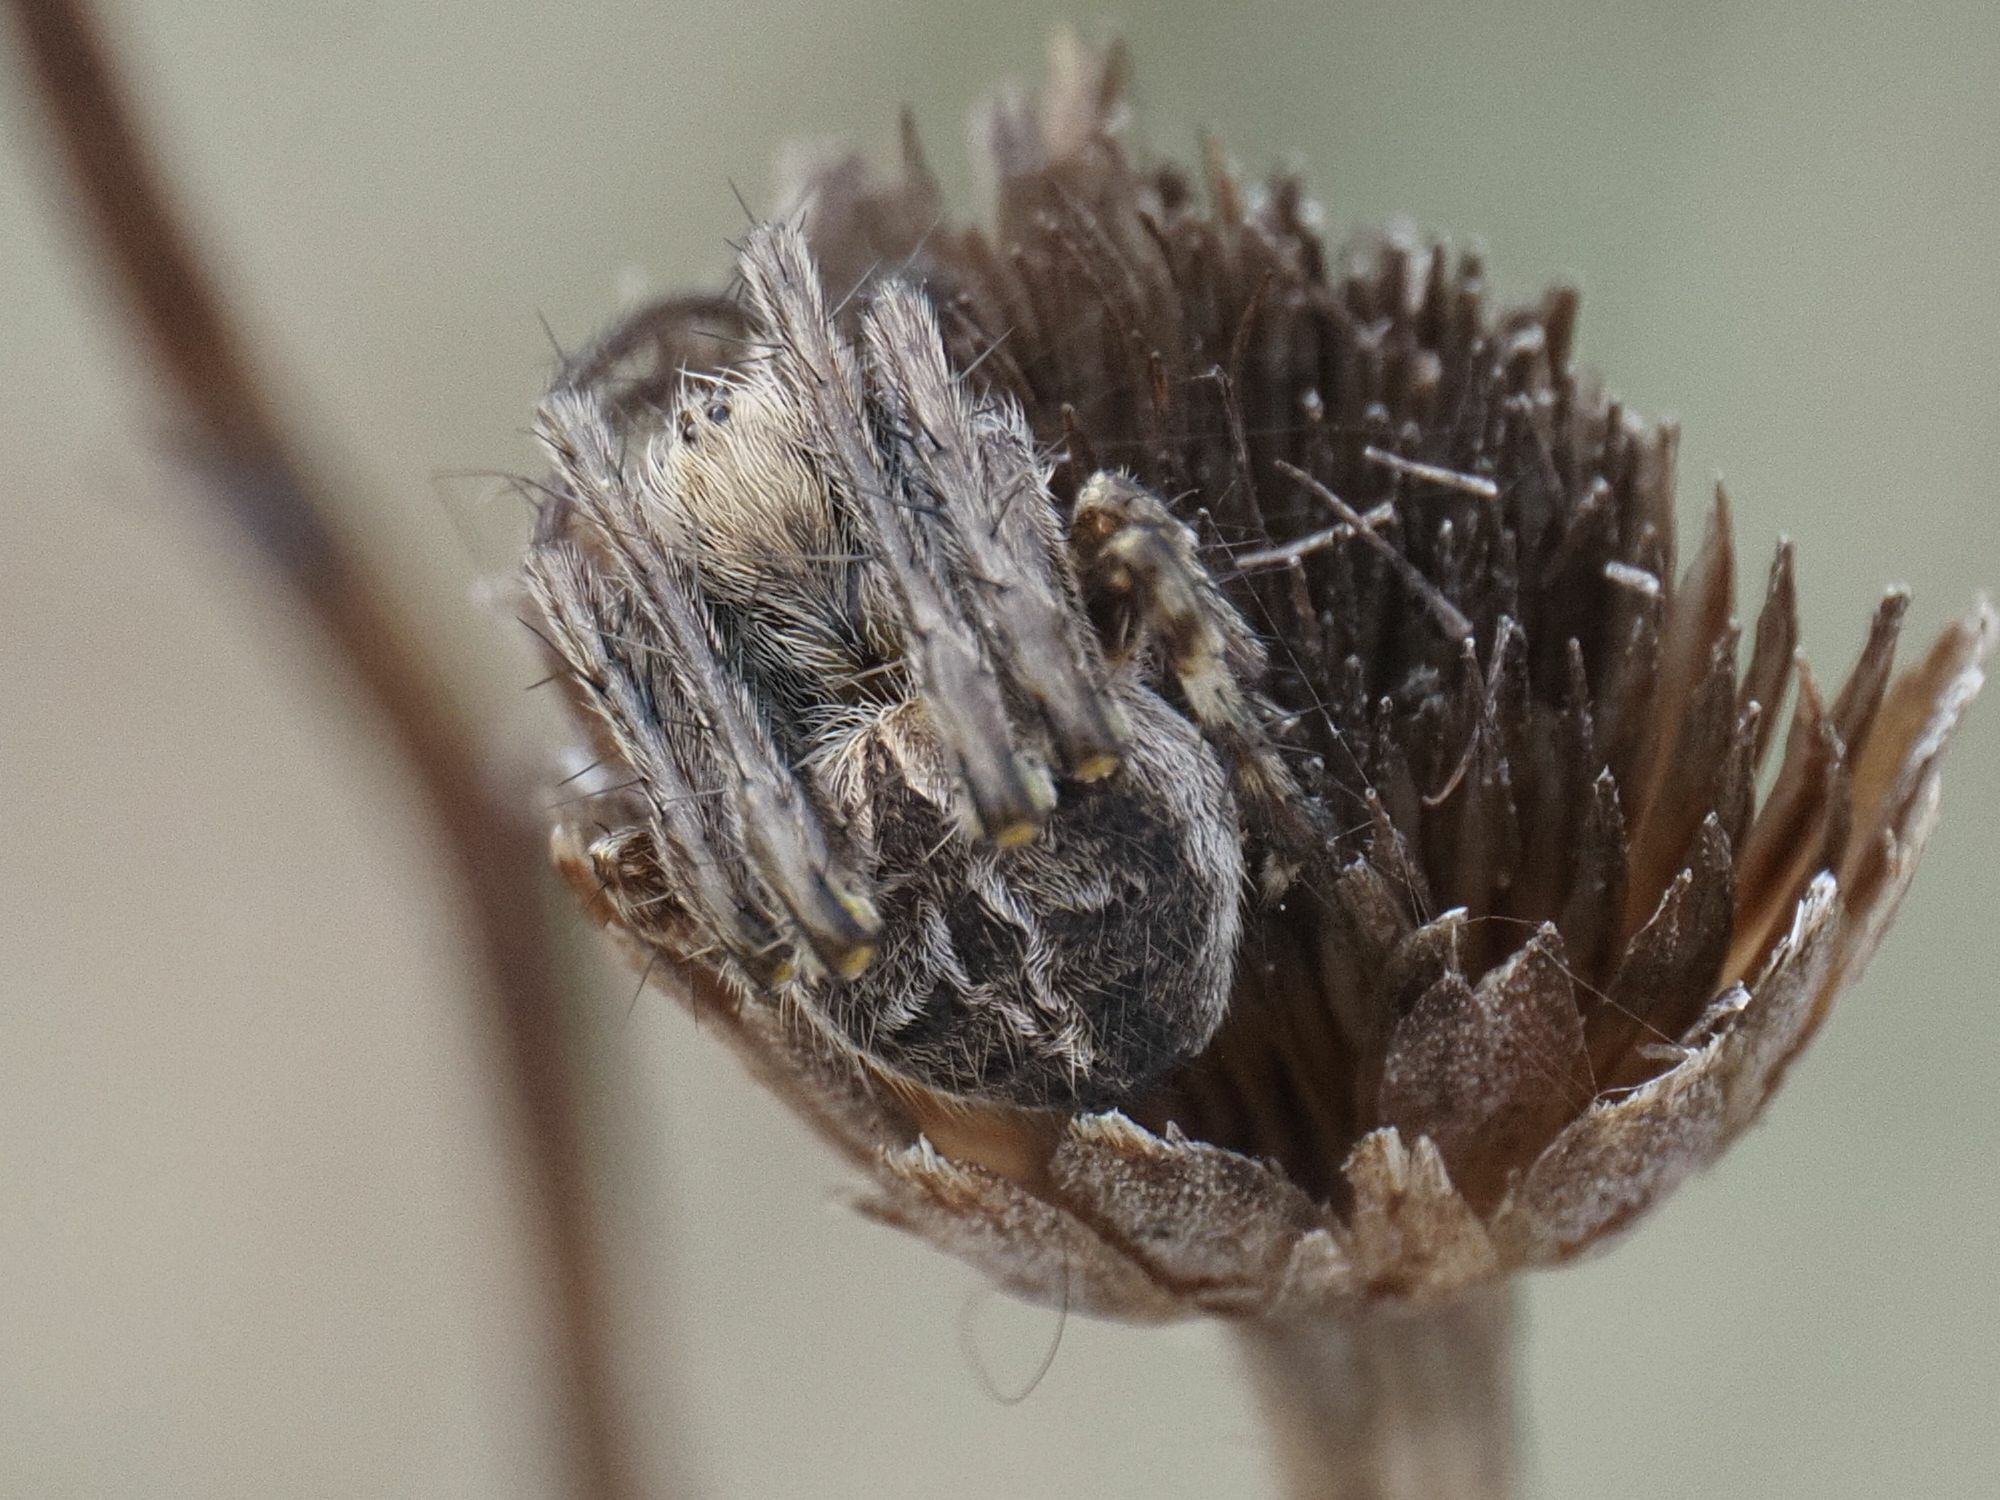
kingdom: Animalia
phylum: Arthropoda
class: Arachnida
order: Araneae
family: Araneidae
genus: Agalenatea
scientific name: Agalenatea redii
